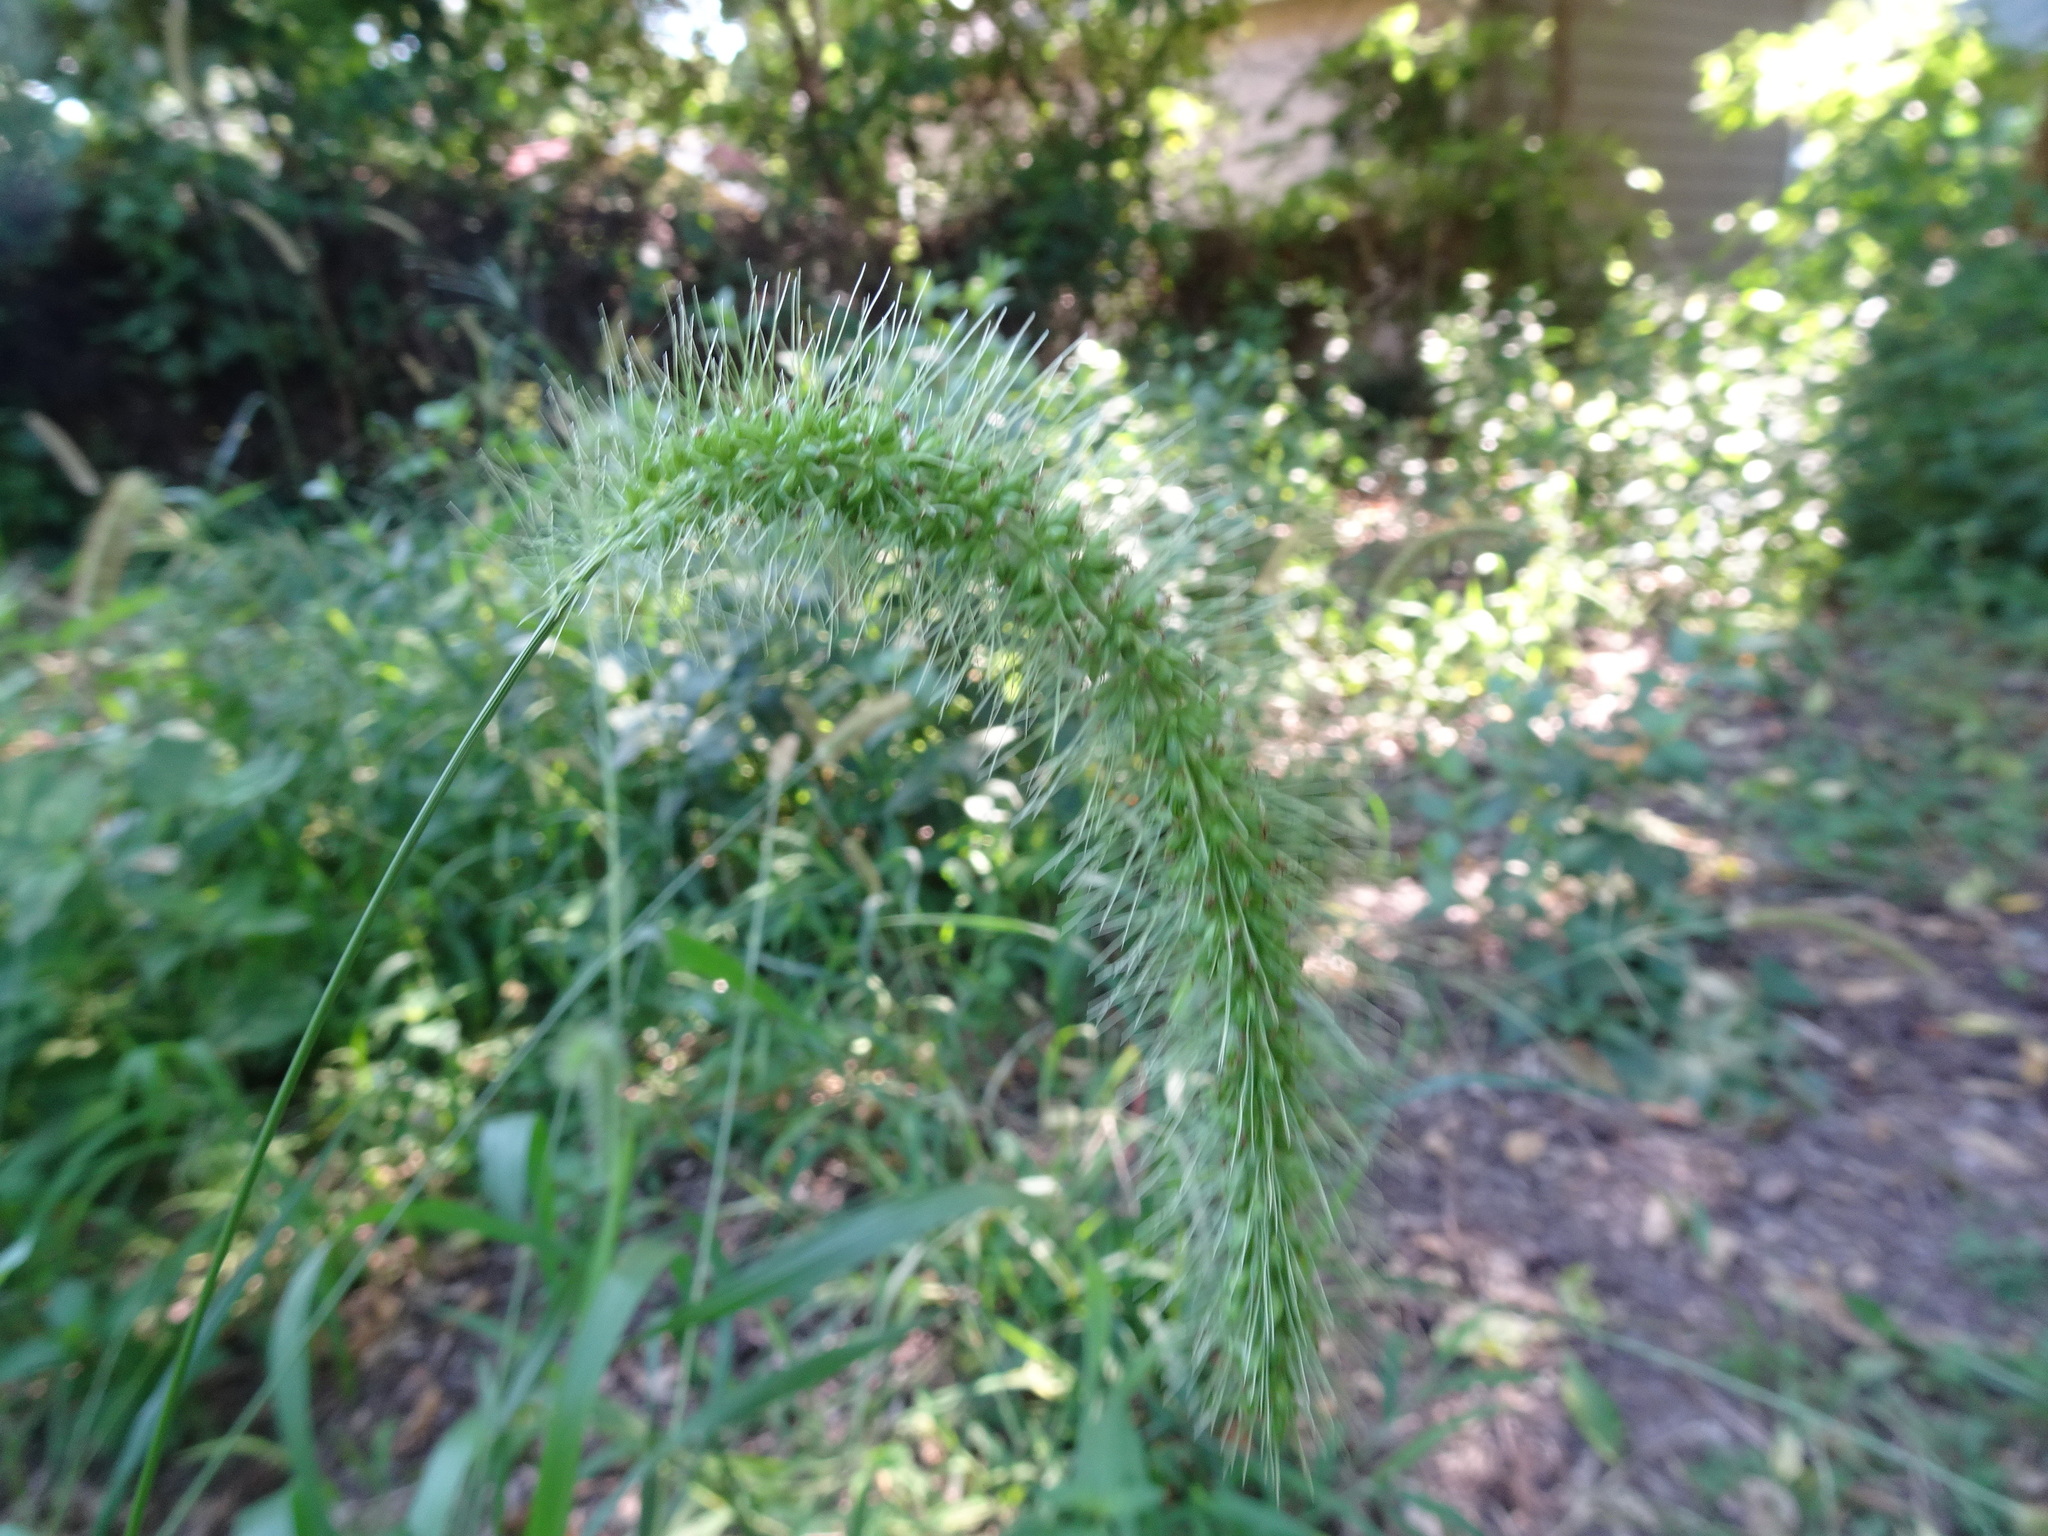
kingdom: Plantae
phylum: Tracheophyta
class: Liliopsida
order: Poales
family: Poaceae
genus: Setaria
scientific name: Setaria faberi
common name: Nodding bristle-grass
